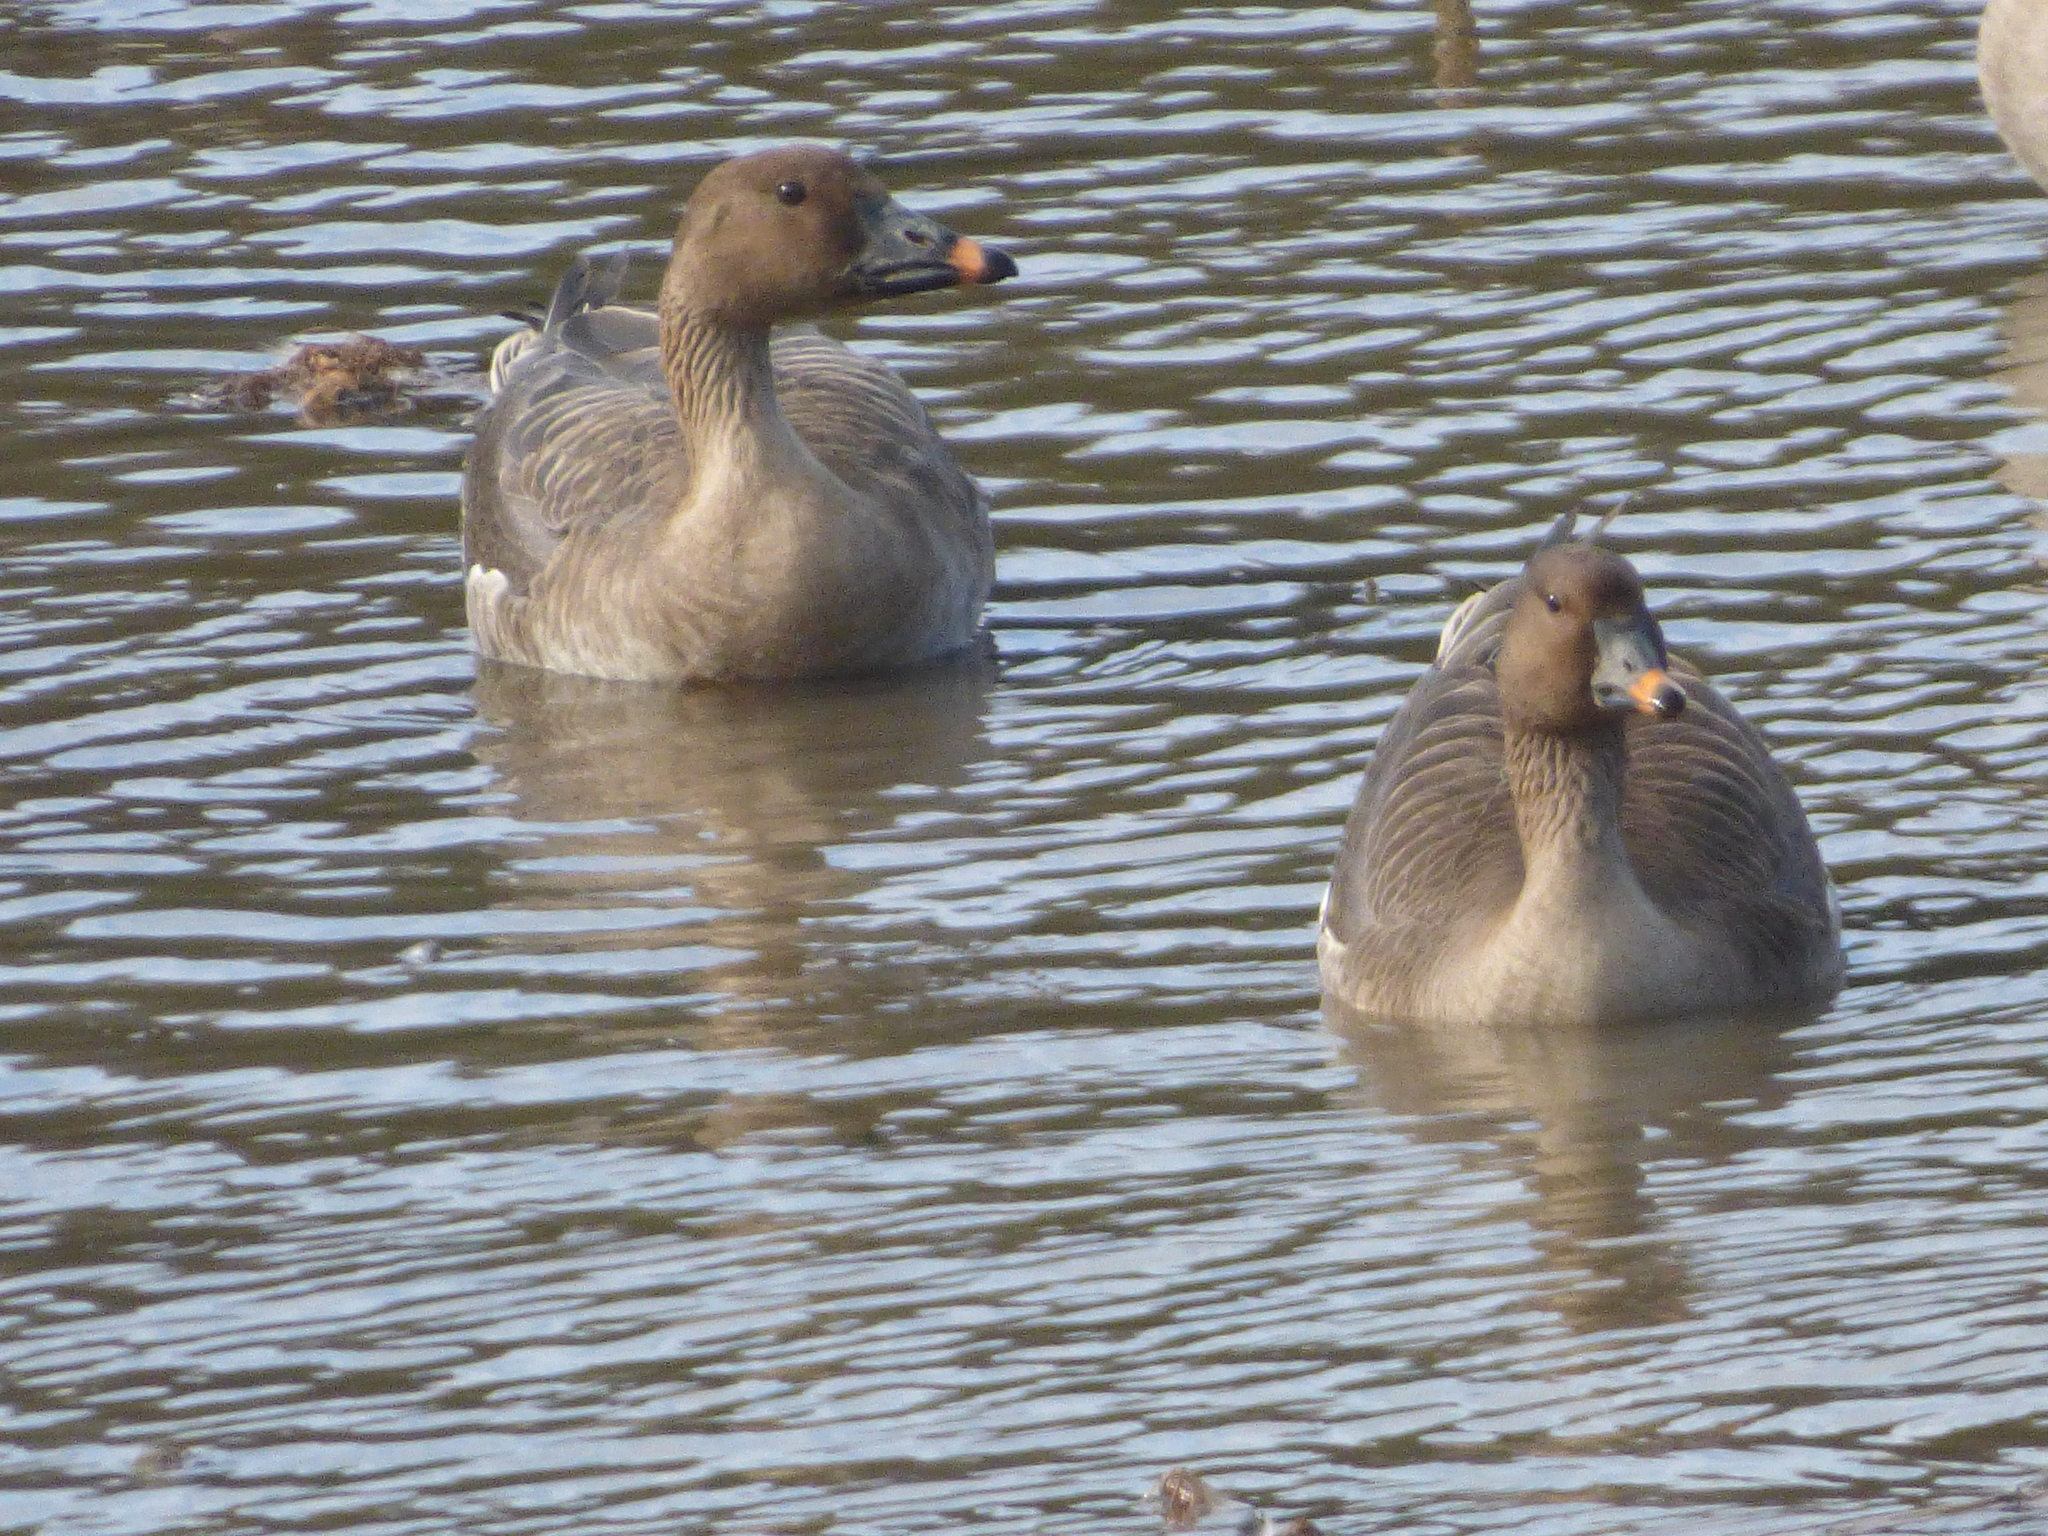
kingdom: Animalia
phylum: Chordata
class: Aves
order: Anseriformes
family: Anatidae
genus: Anser
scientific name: Anser fabalis
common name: Bean goose
